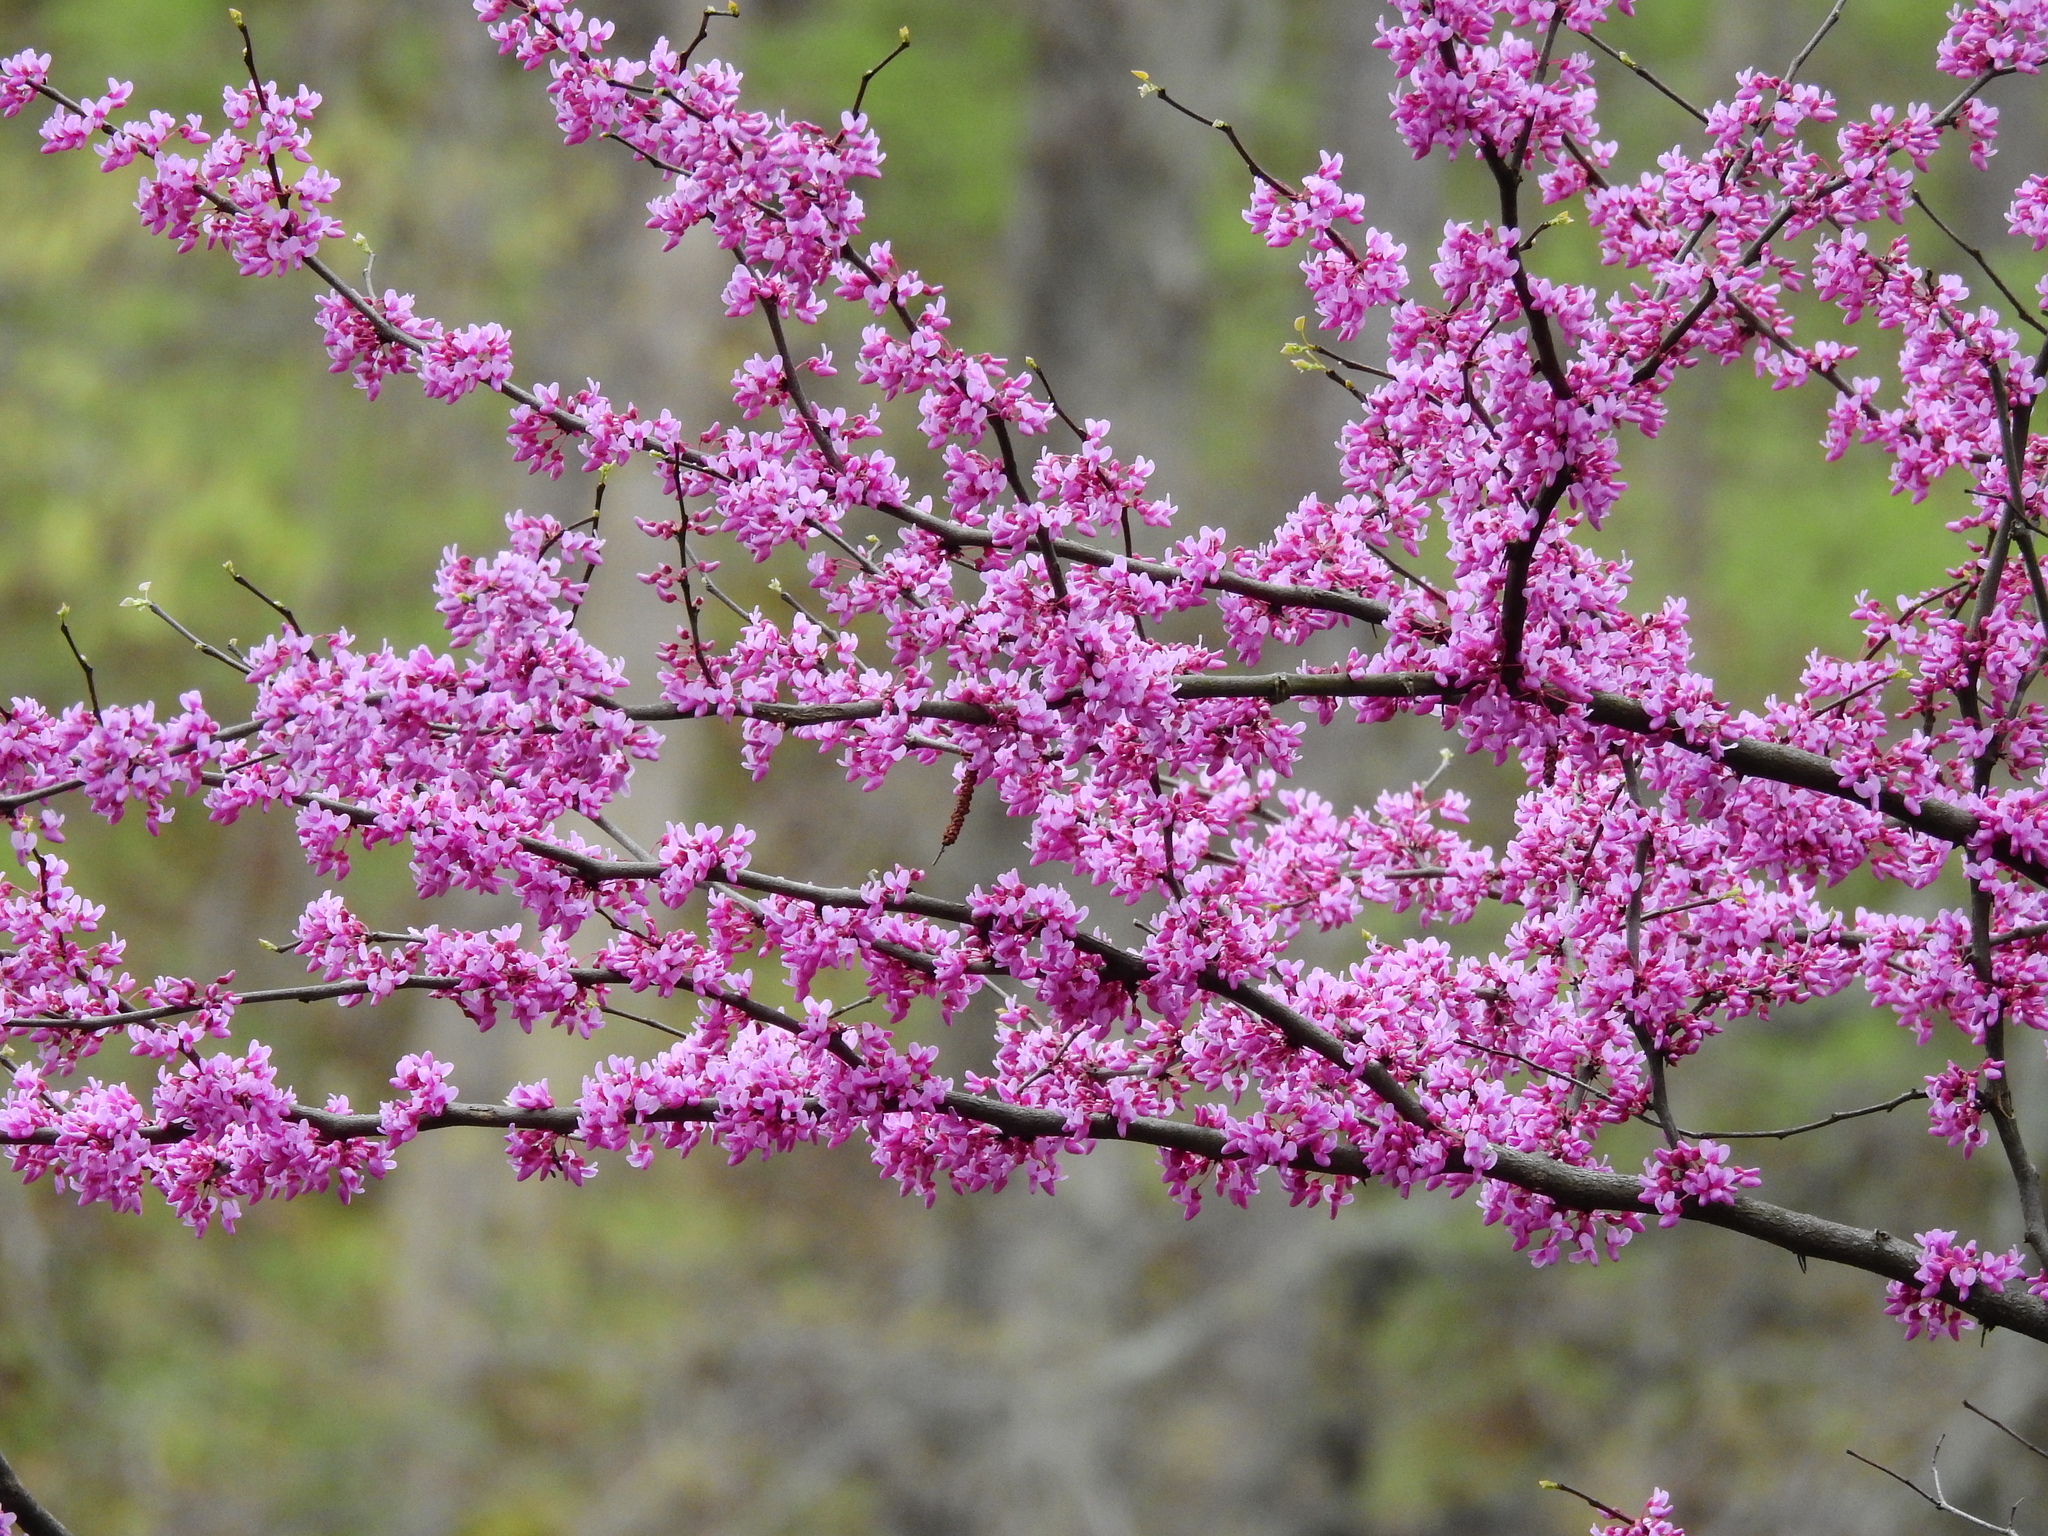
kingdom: Plantae
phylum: Tracheophyta
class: Magnoliopsida
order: Fabales
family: Fabaceae
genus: Cercis
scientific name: Cercis canadensis
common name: Eastern redbud
